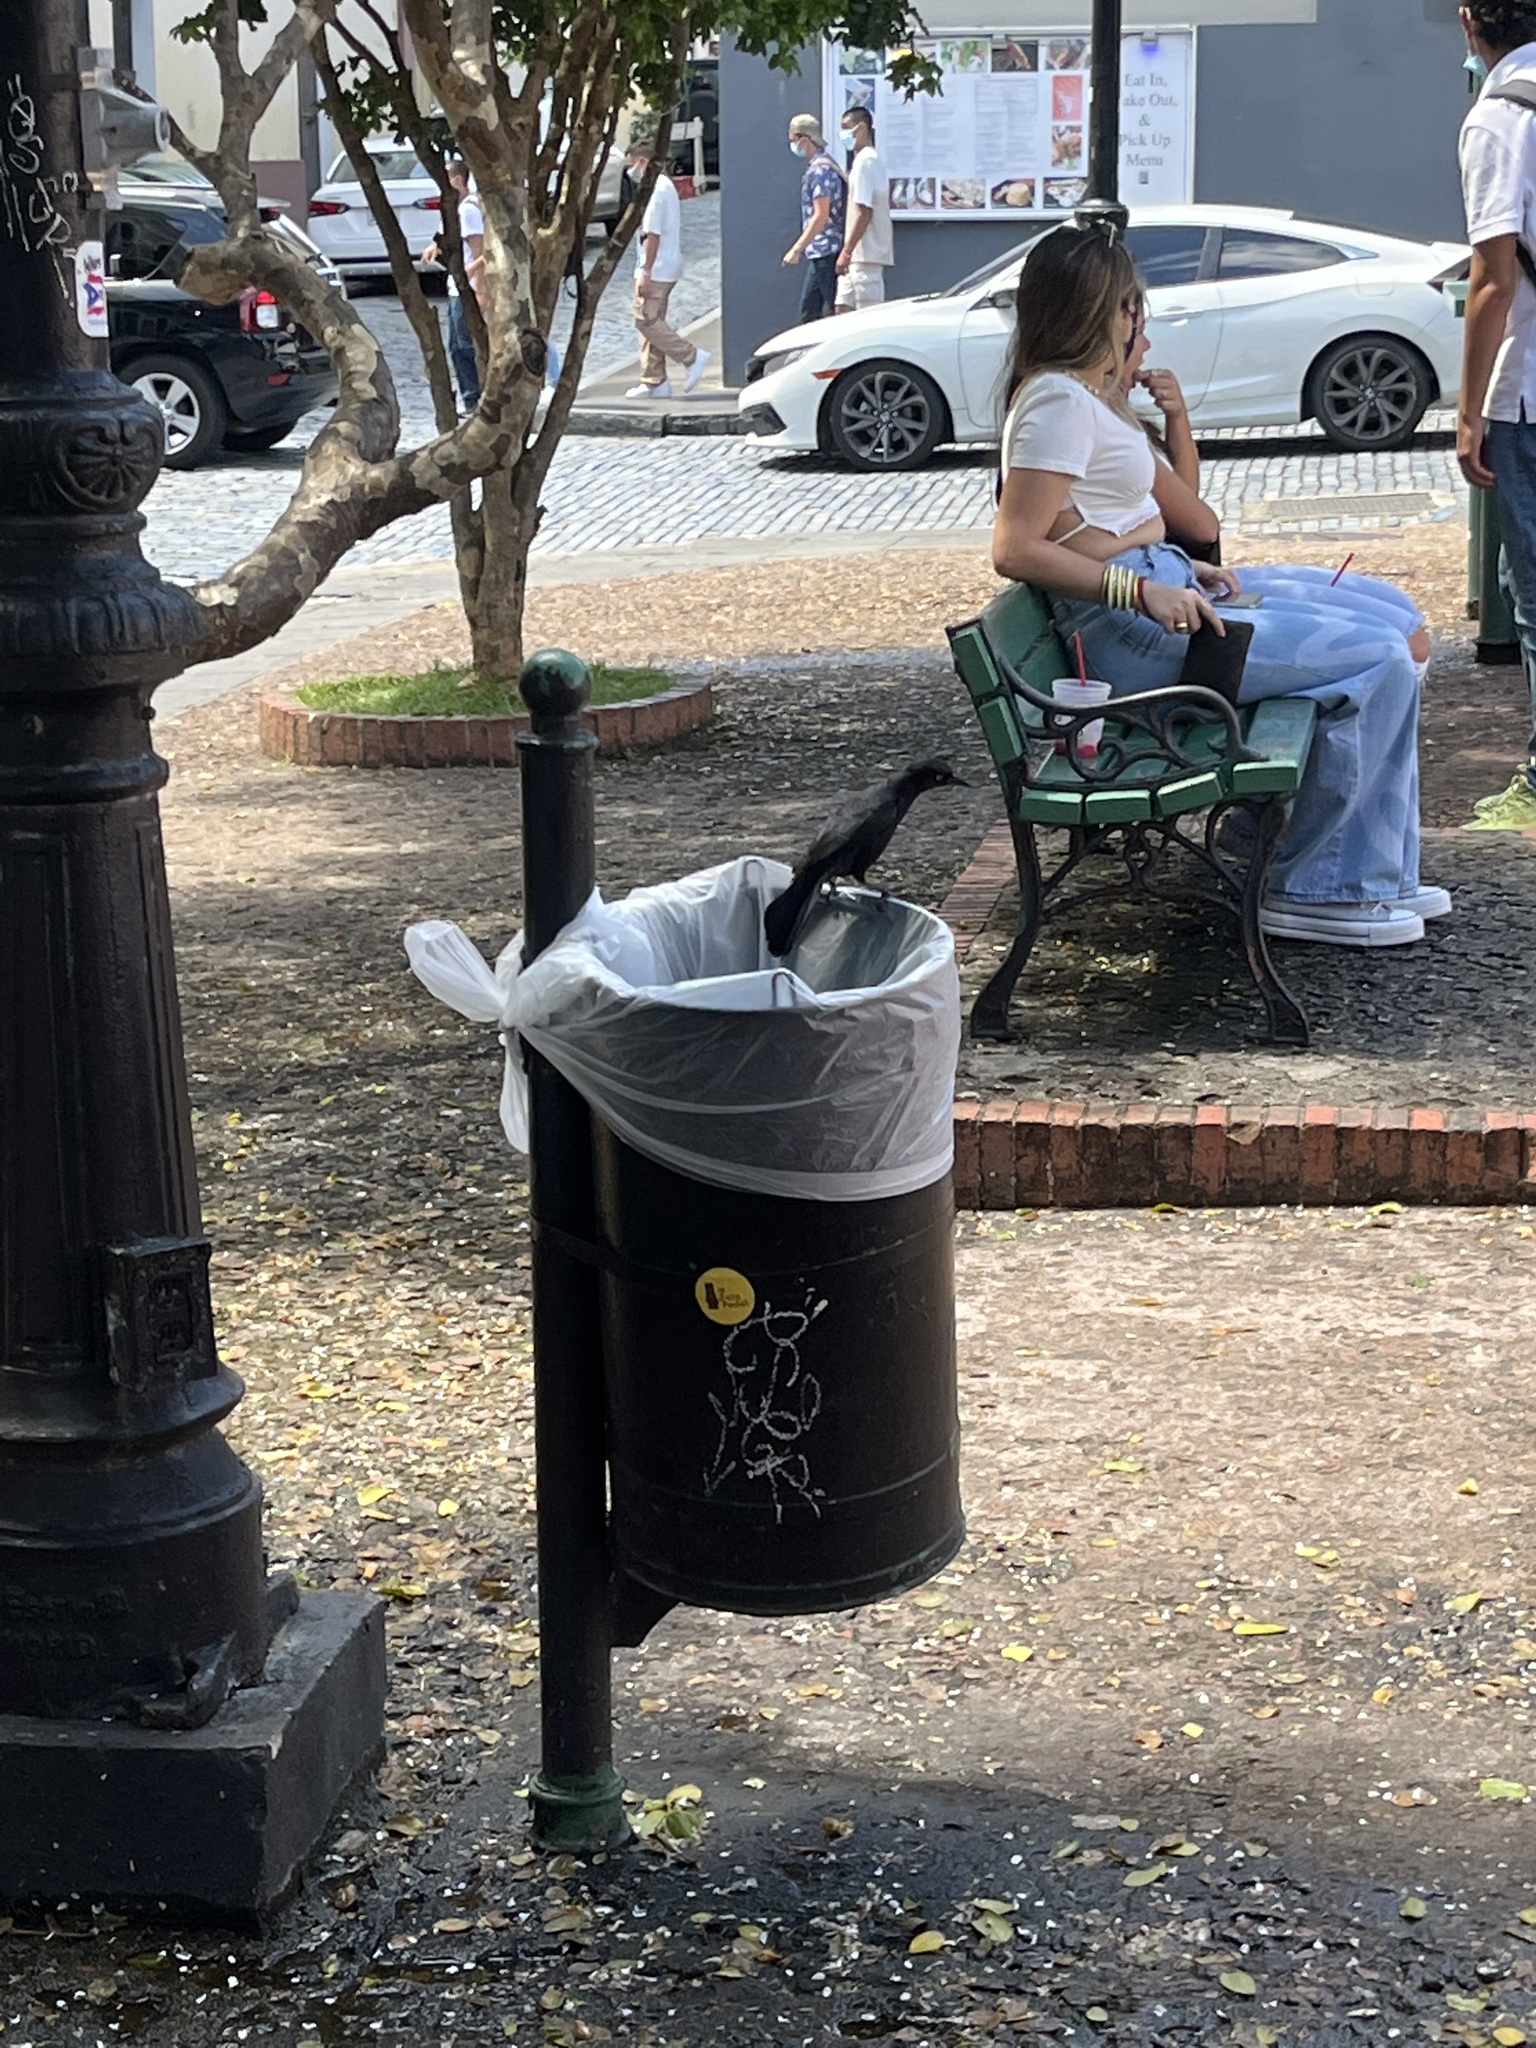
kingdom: Animalia
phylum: Chordata
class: Aves
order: Passeriformes
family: Icteridae
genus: Quiscalus
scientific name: Quiscalus niger
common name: Greater antillean grackle
